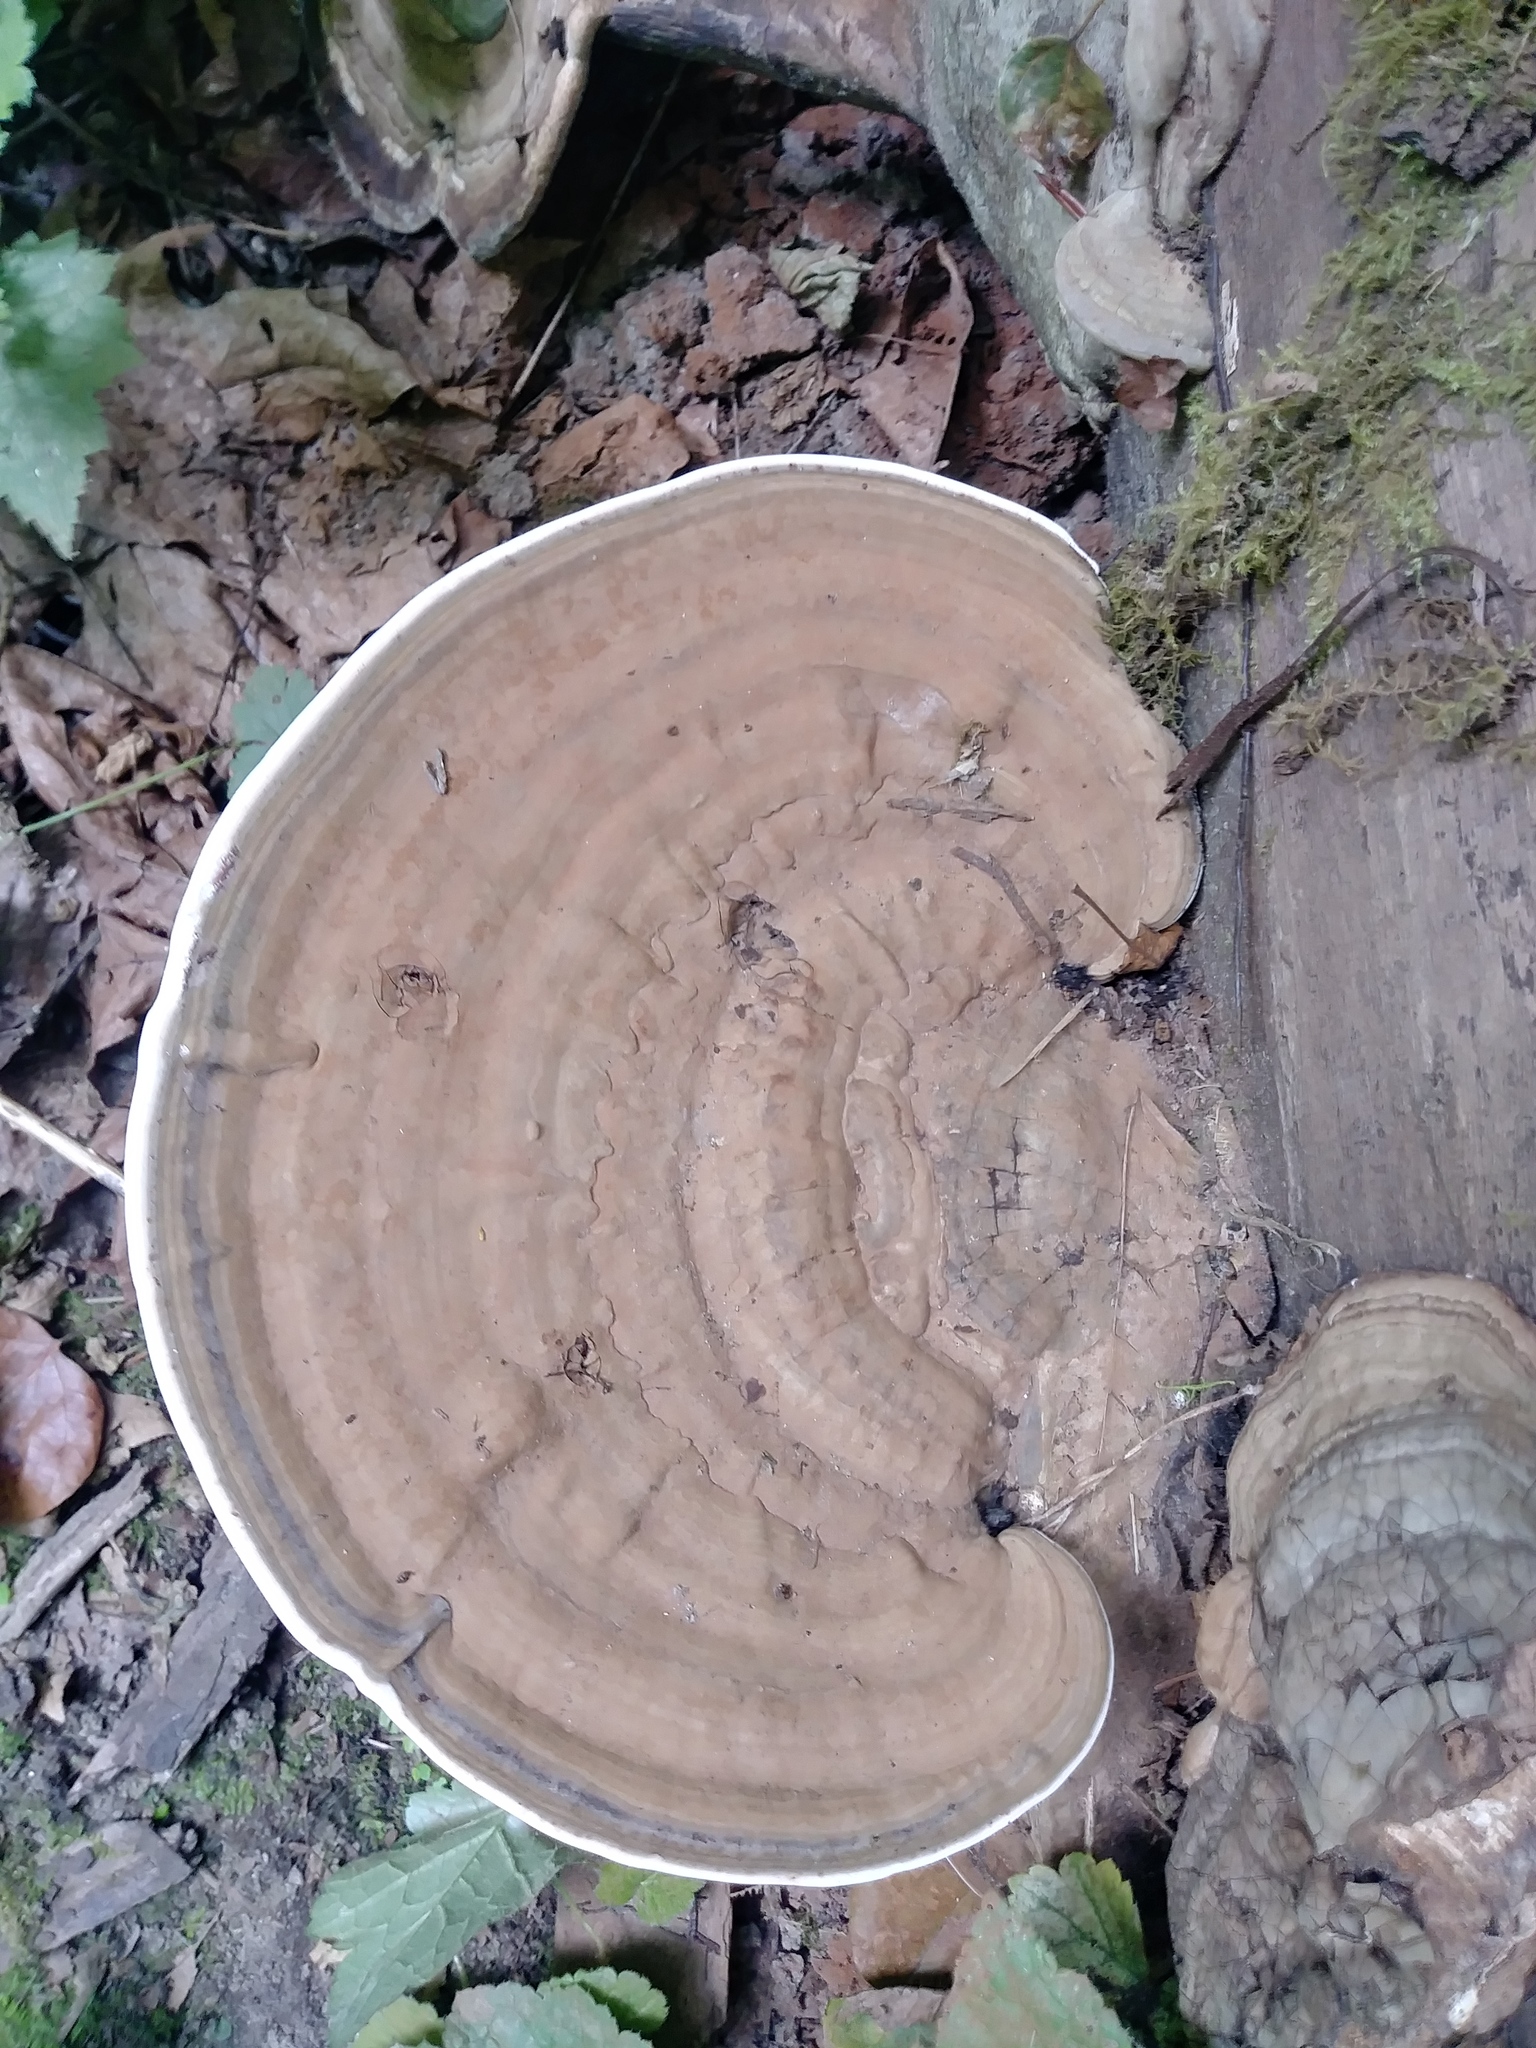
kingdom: Fungi
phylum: Basidiomycota
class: Agaricomycetes
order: Polyporales
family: Polyporaceae
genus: Ganoderma
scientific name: Ganoderma applanatum
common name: Artist's bracket
